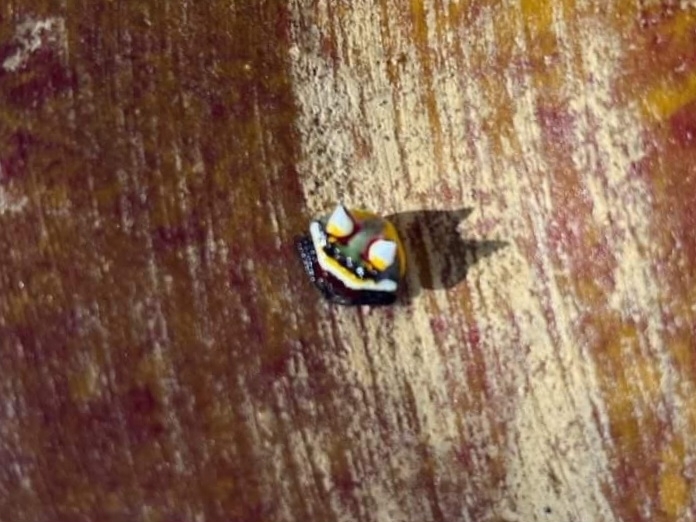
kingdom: Animalia
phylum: Arthropoda
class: Arachnida
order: Araneae
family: Araneidae
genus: Poecilopachys
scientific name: Poecilopachys australasia
